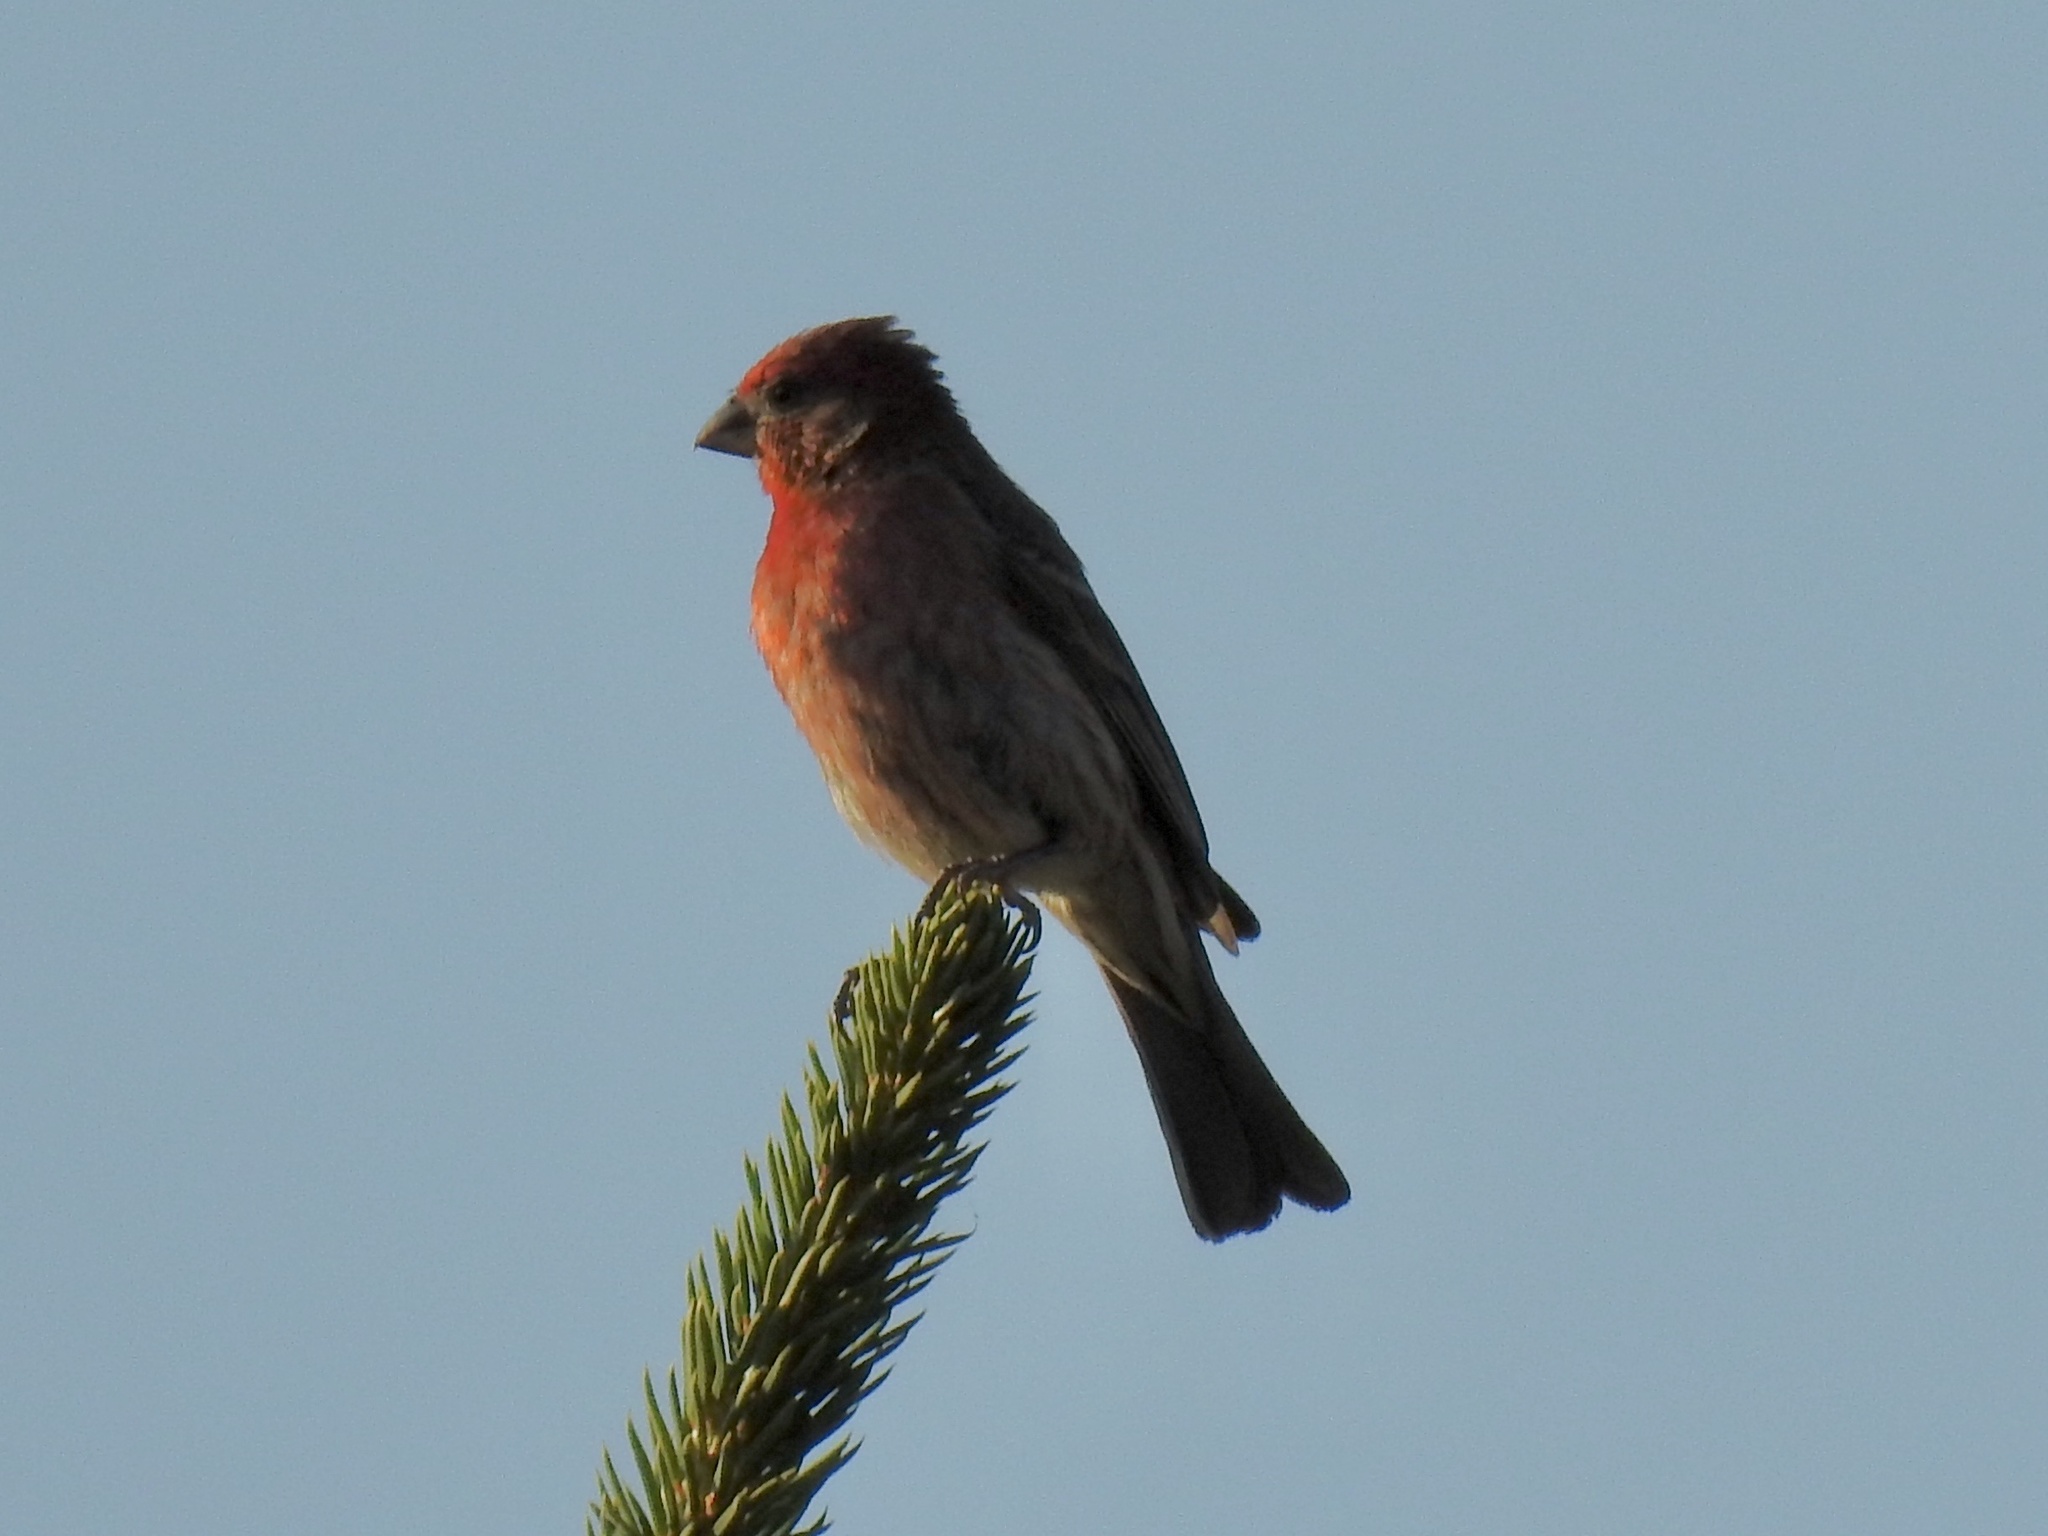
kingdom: Animalia
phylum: Chordata
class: Aves
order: Passeriformes
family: Fringillidae
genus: Haemorhous
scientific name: Haemorhous mexicanus
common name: House finch
